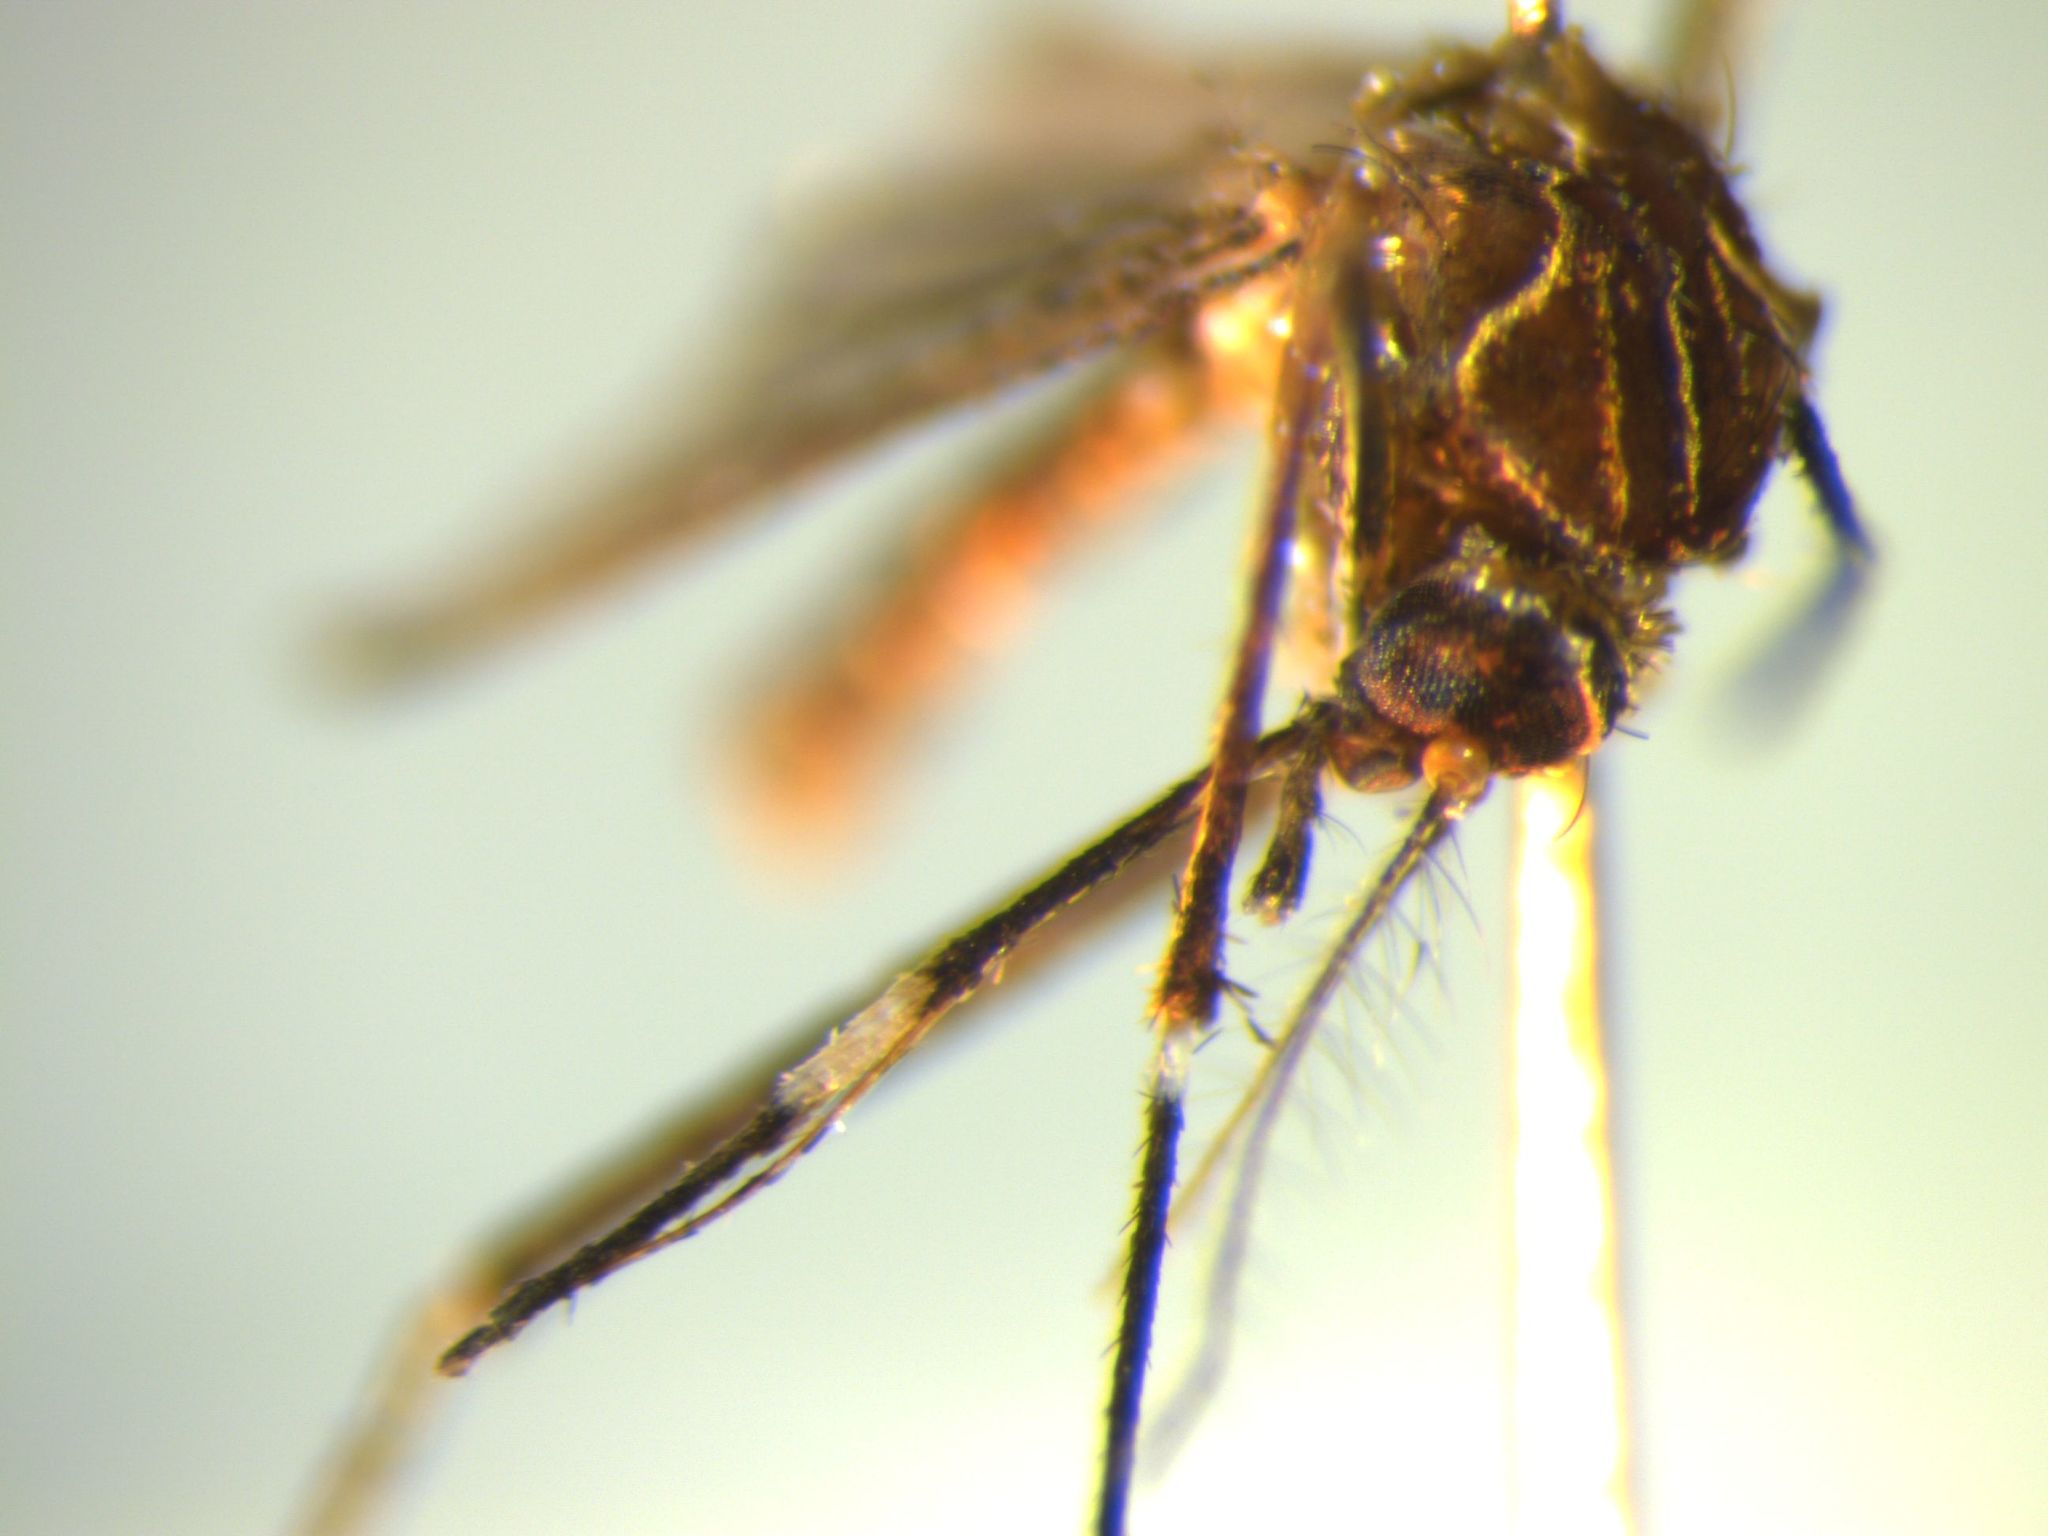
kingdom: Animalia
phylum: Arthropoda
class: Insecta
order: Diptera
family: Culicidae
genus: Aedes
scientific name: Aedes notoscriptus
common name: Australian backyard mosquito
